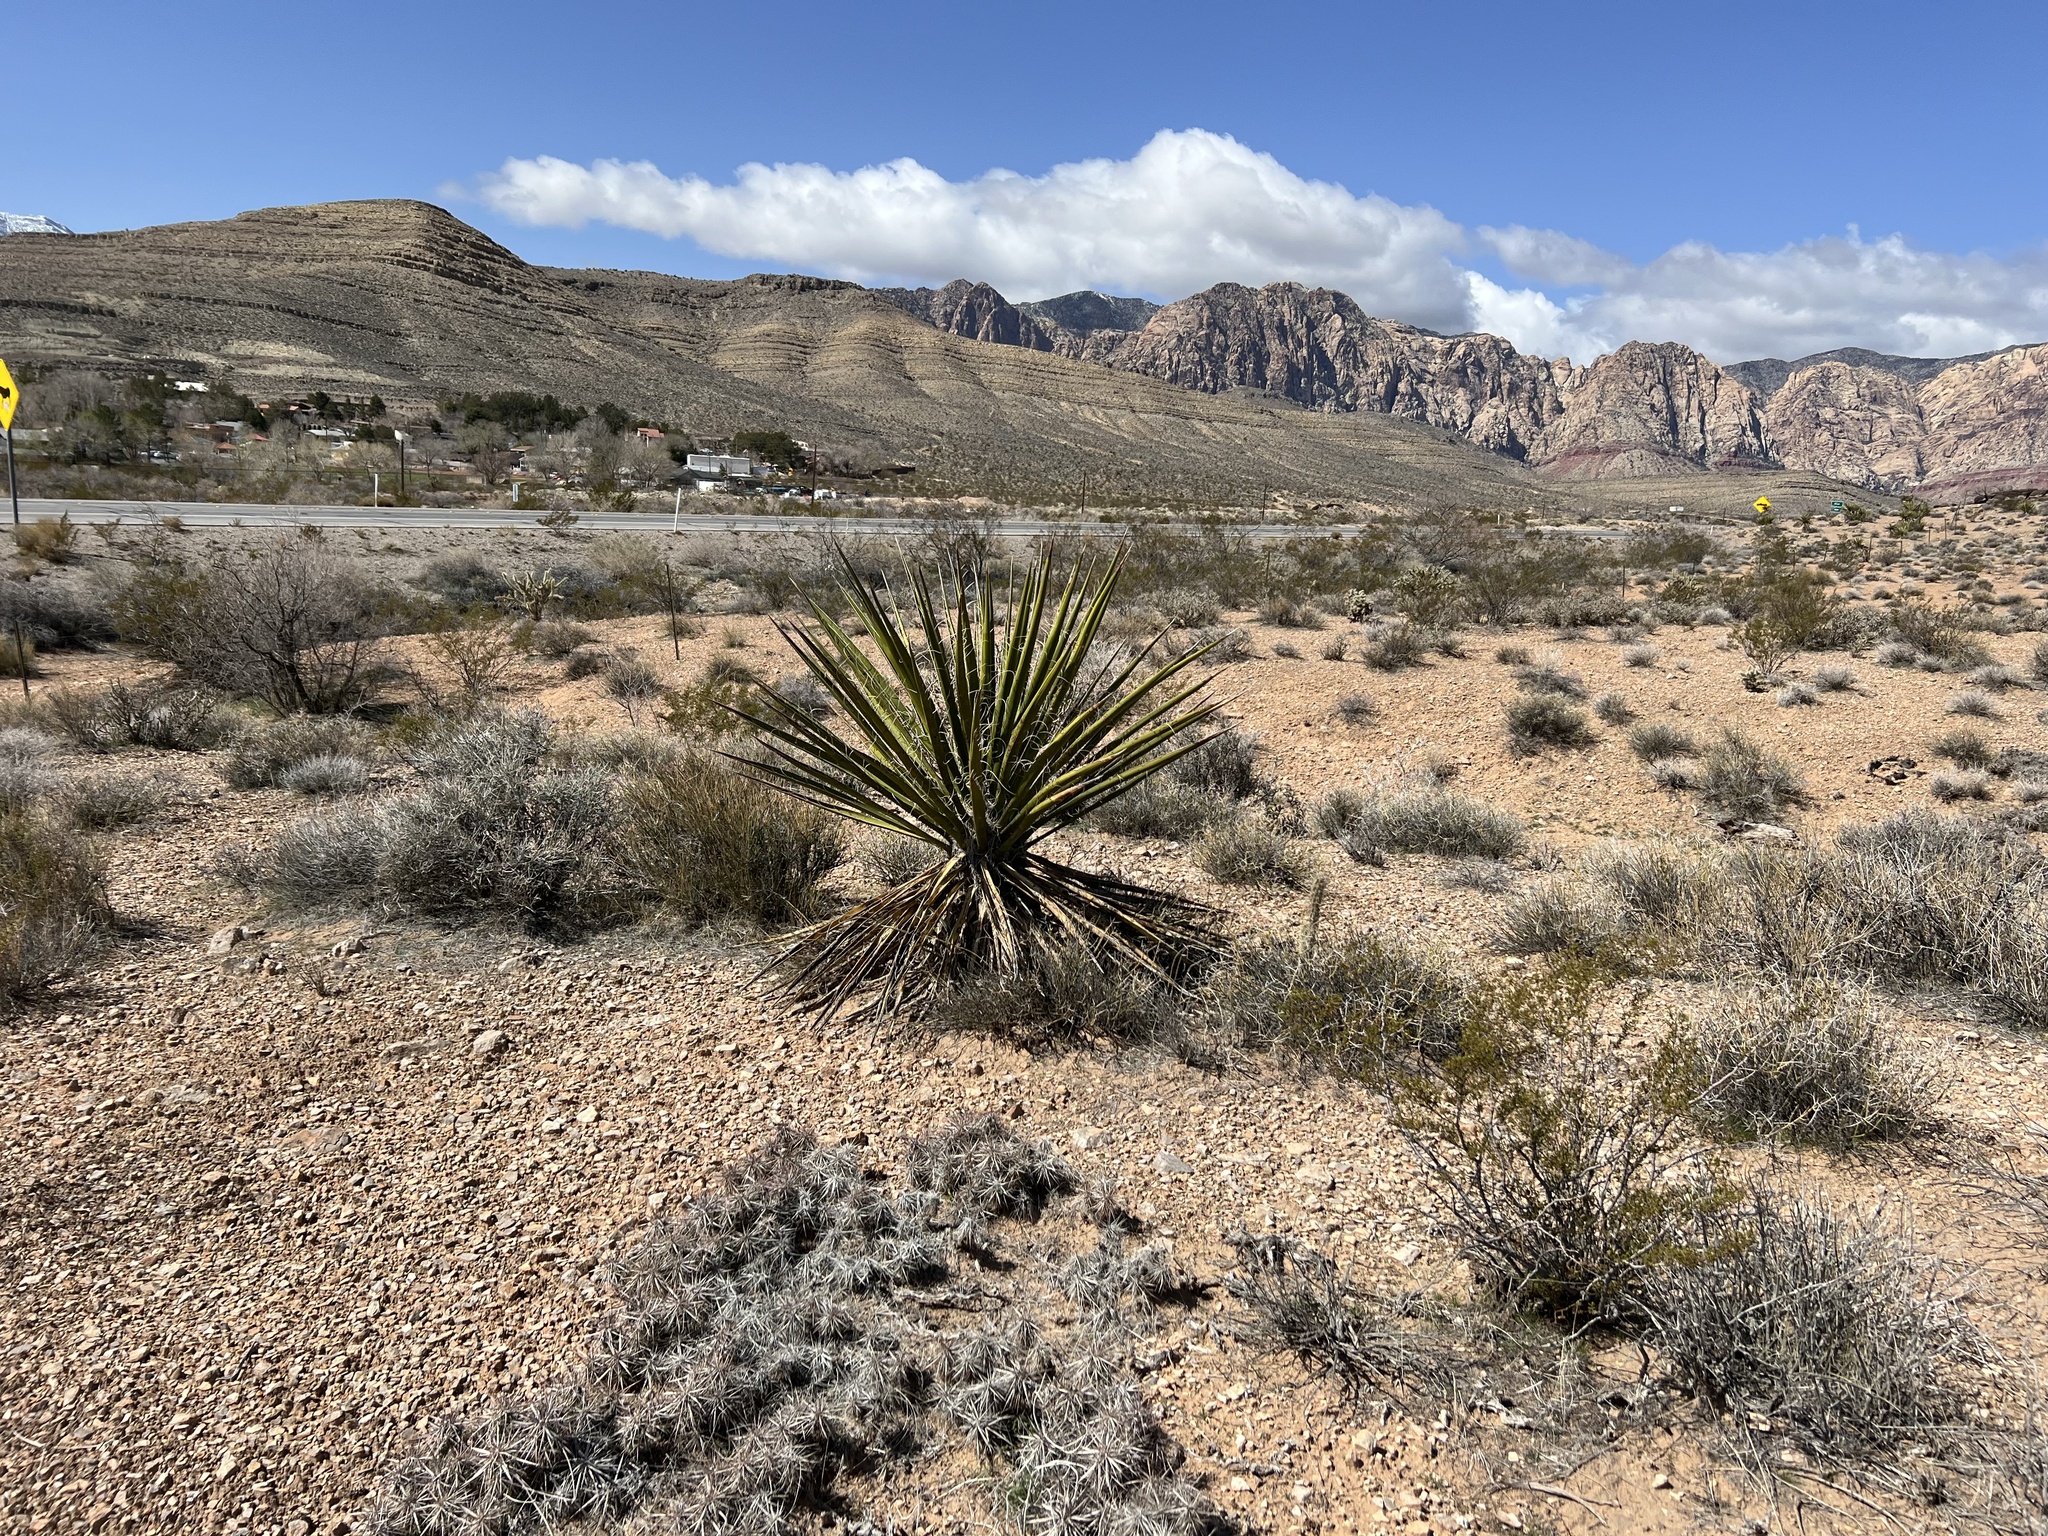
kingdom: Plantae
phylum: Tracheophyta
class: Liliopsida
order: Asparagales
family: Asparagaceae
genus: Yucca
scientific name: Yucca schidigera
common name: Mojave yucca
